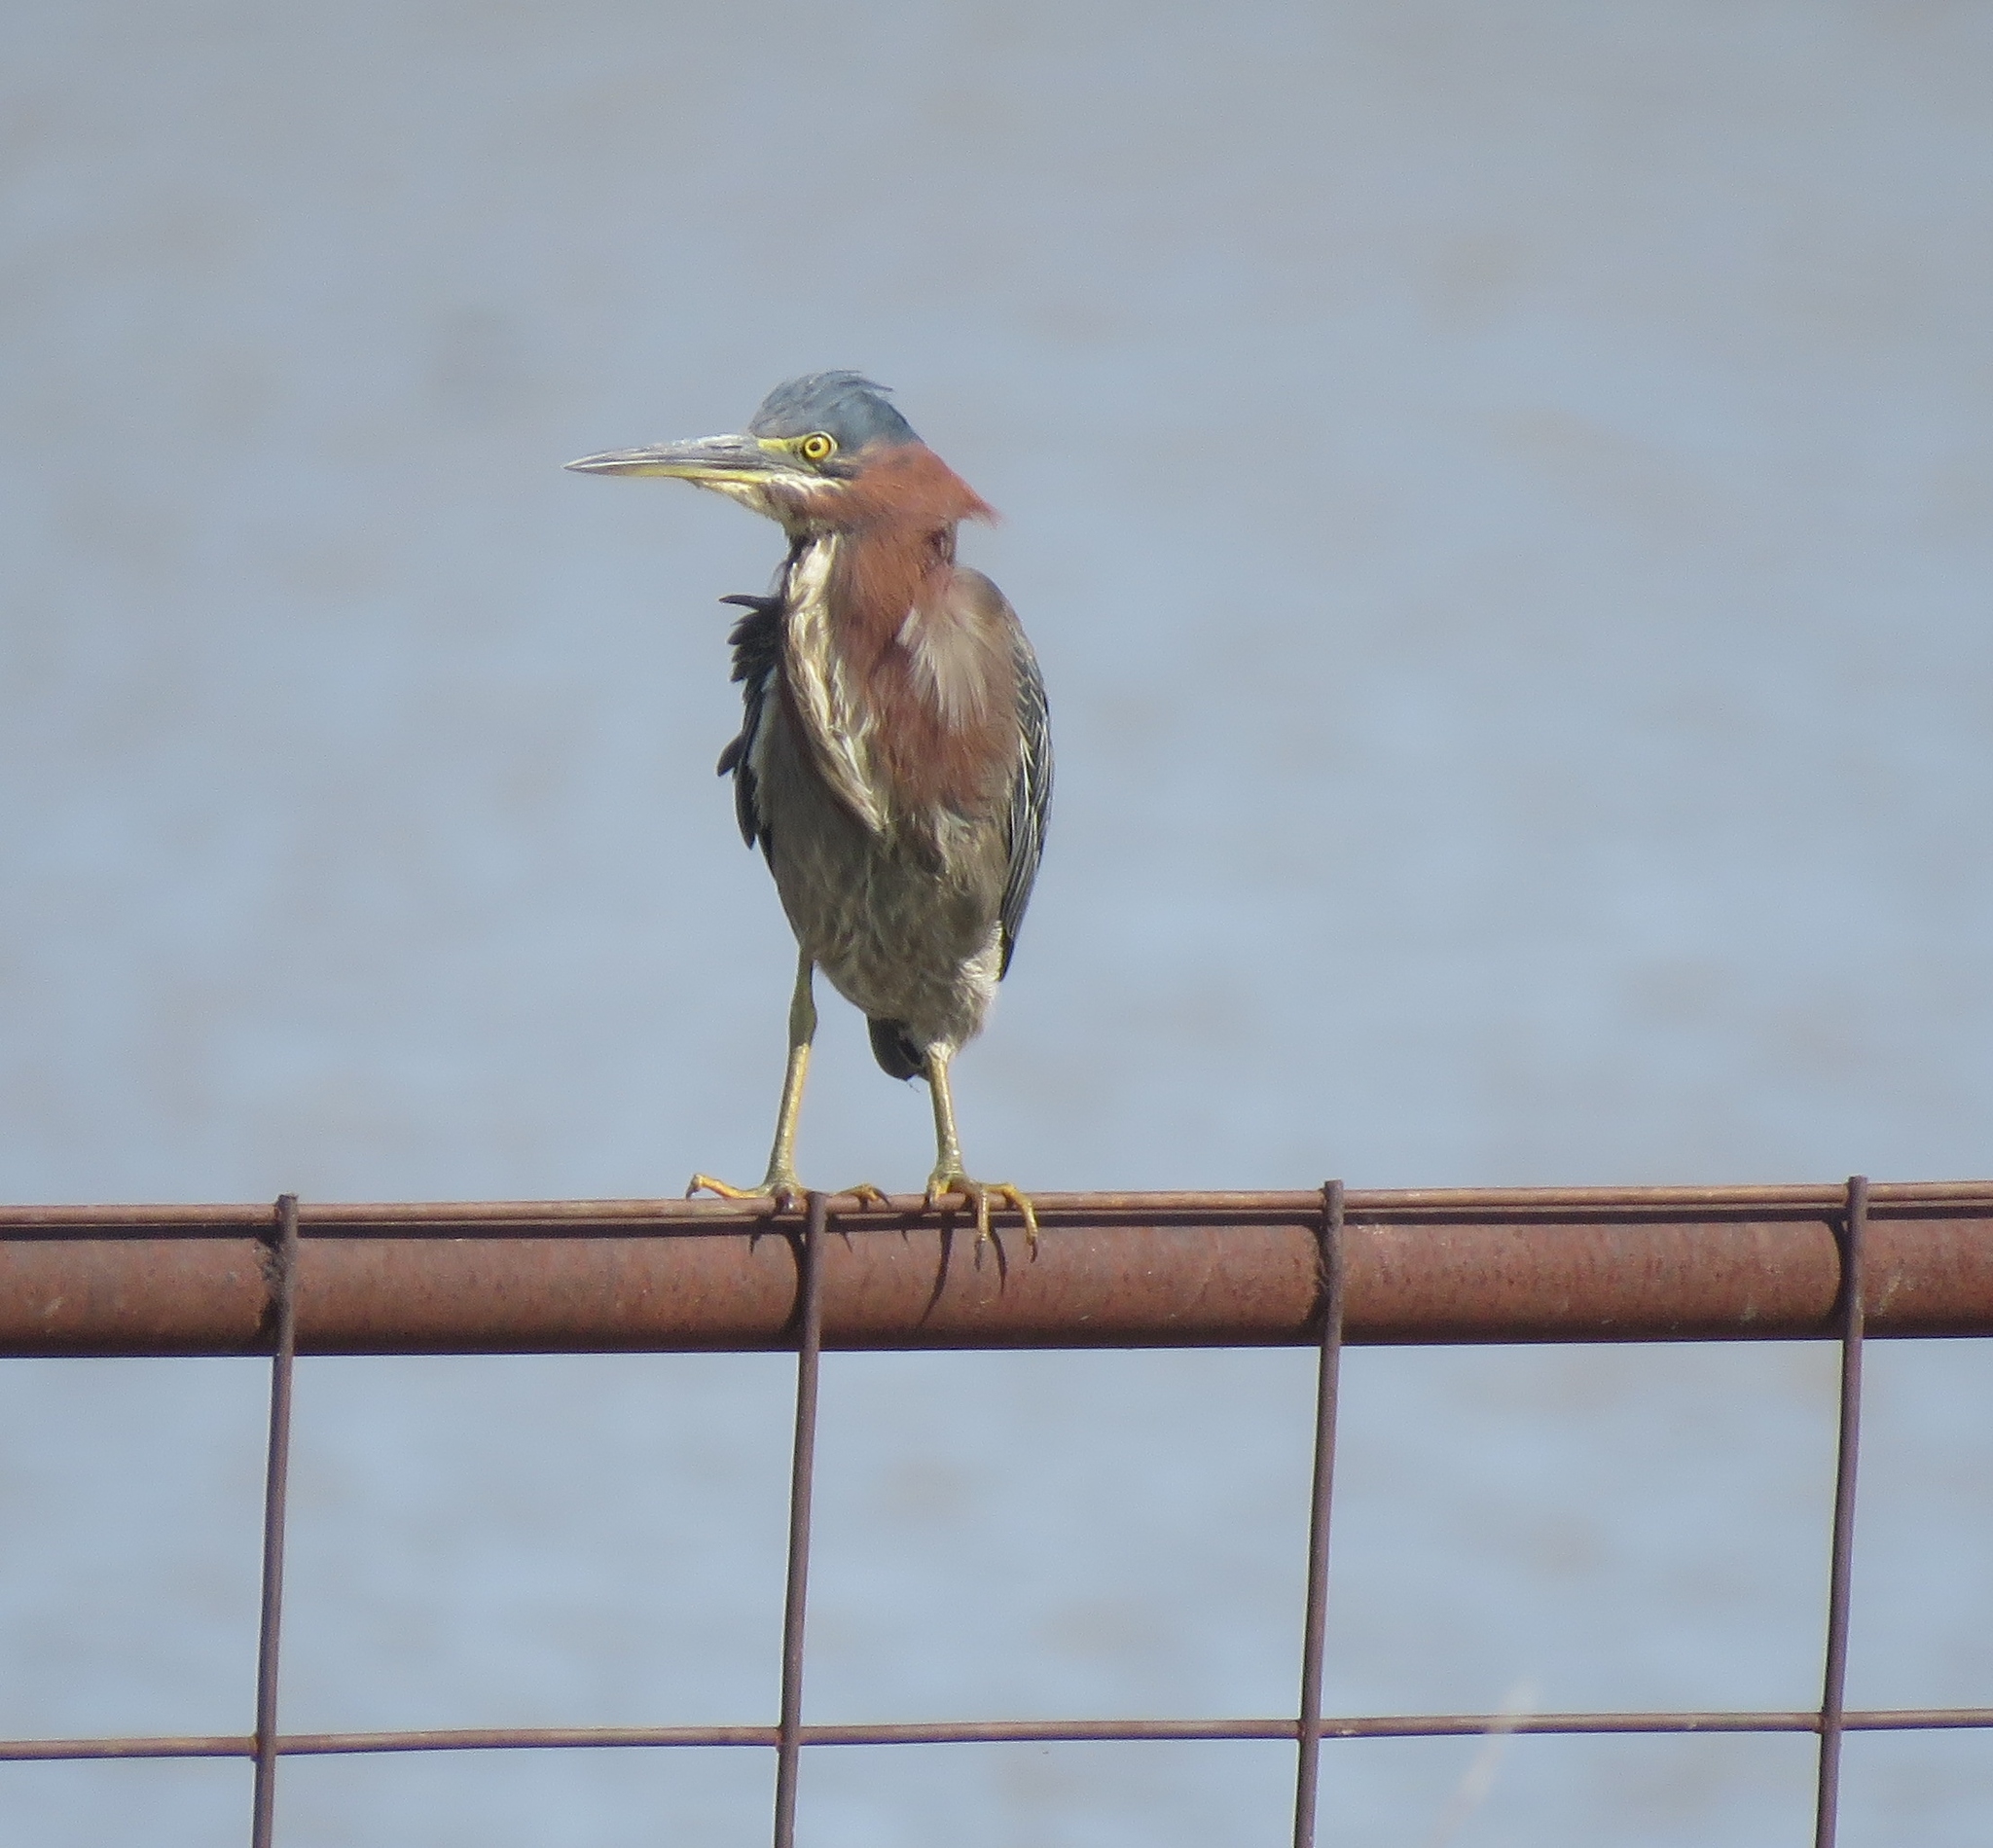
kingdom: Animalia
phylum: Chordata
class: Aves
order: Pelecaniformes
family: Ardeidae
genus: Butorides
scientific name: Butorides virescens
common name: Green heron
